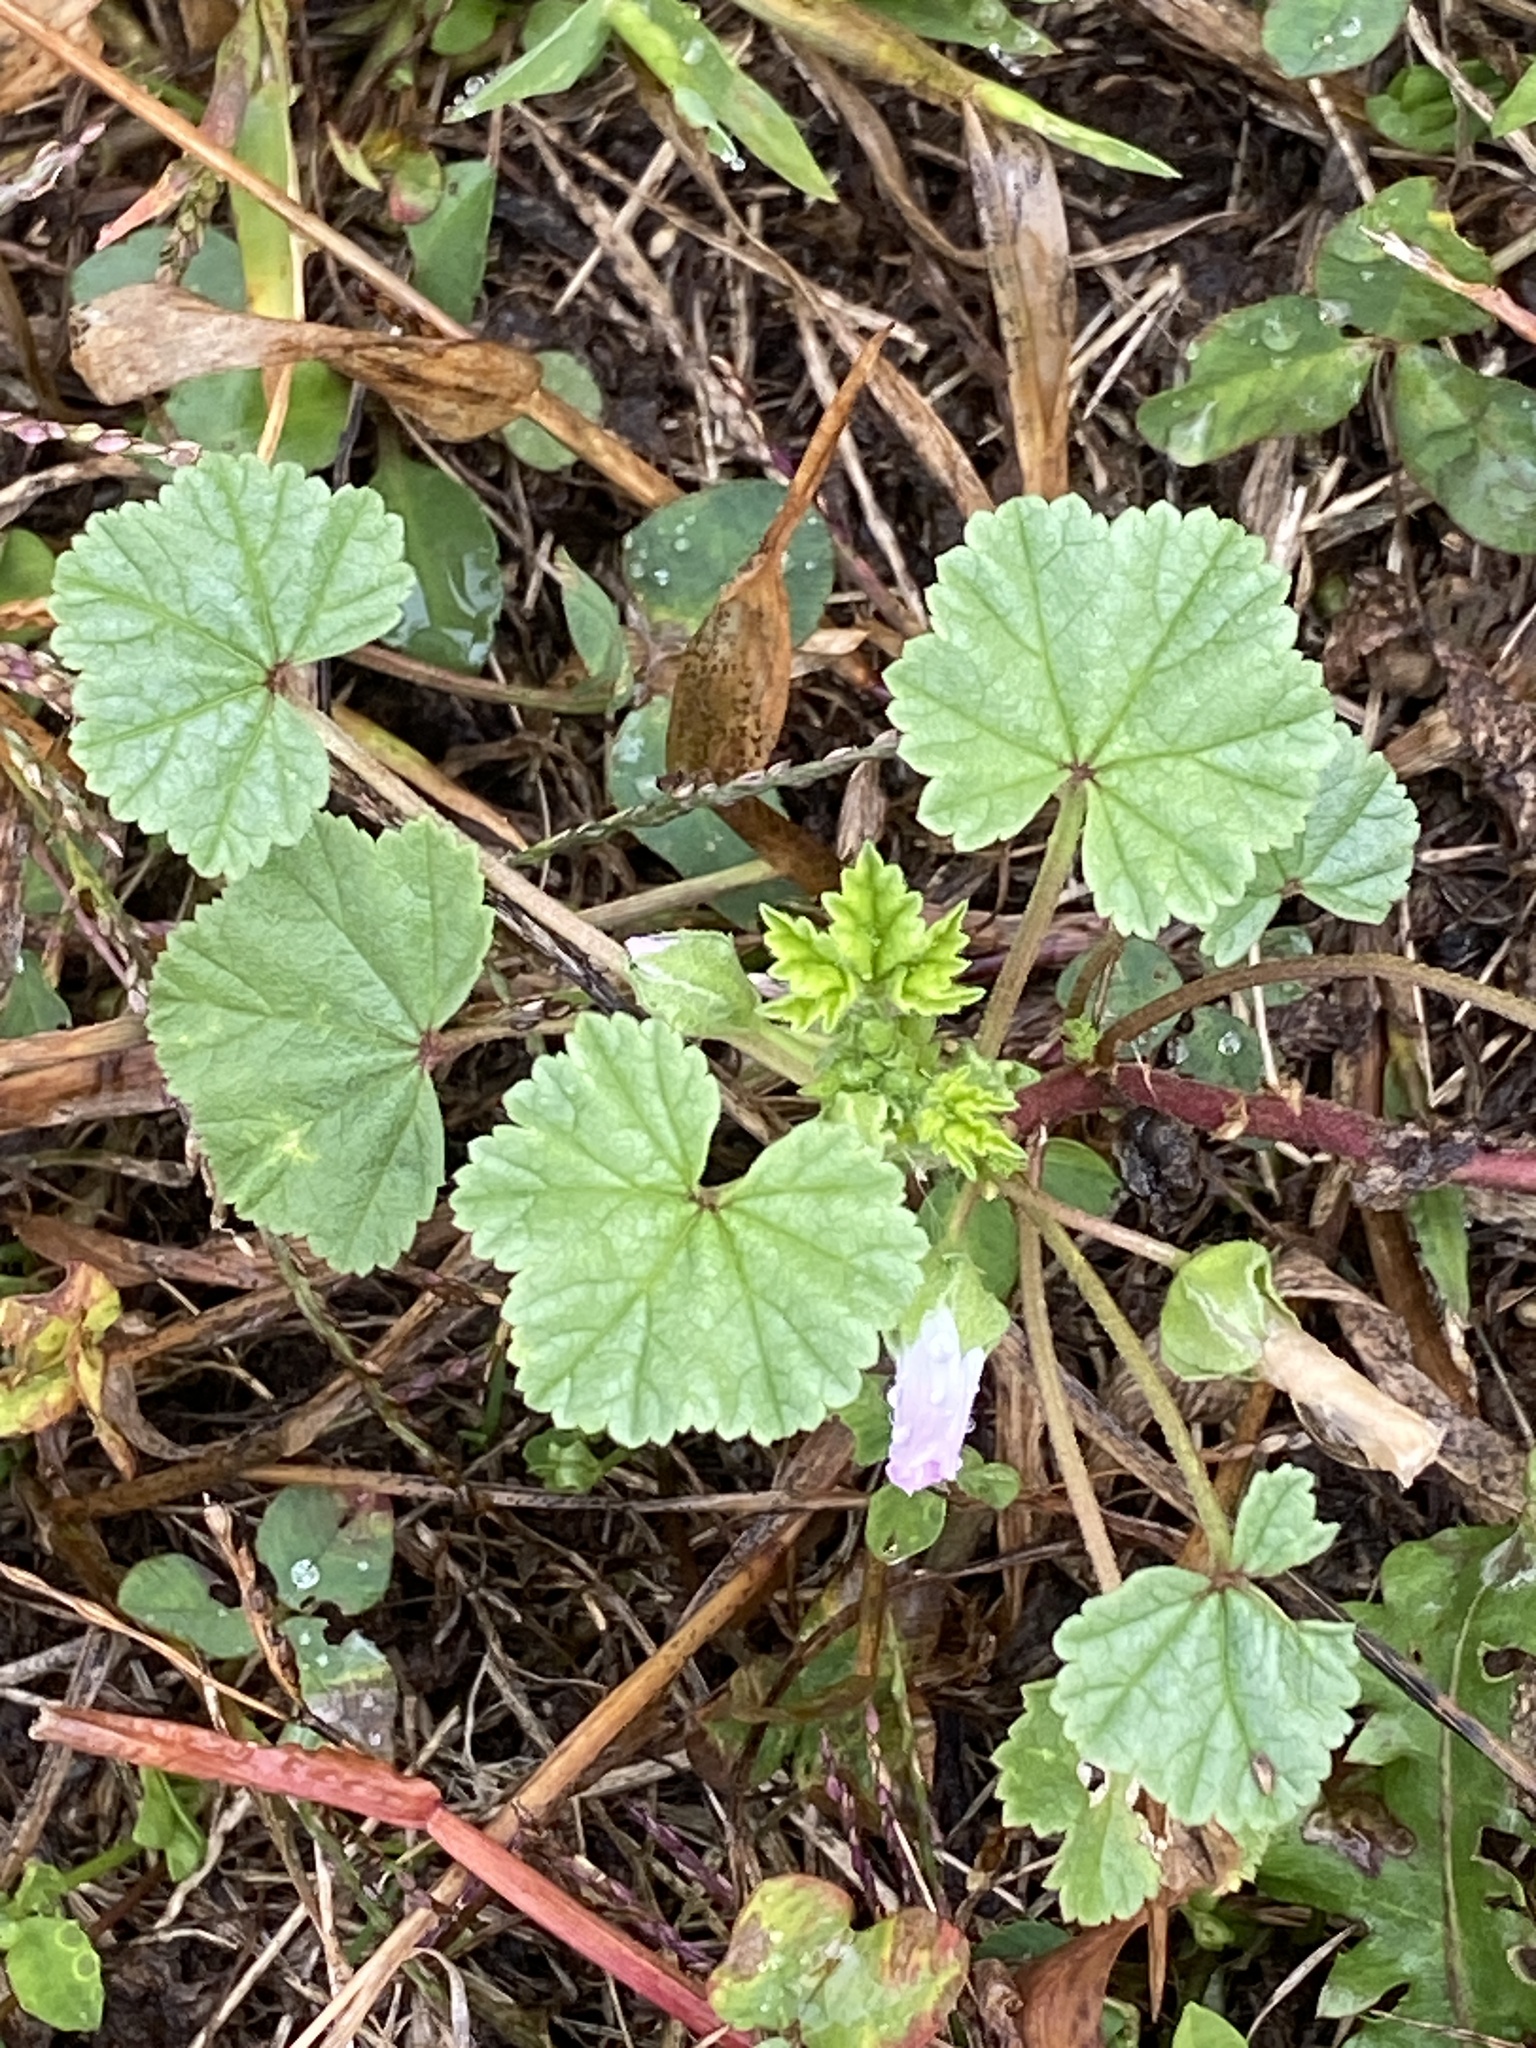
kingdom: Plantae
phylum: Tracheophyta
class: Magnoliopsida
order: Malvales
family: Malvaceae
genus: Malva
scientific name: Malva neglecta
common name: Common mallow
